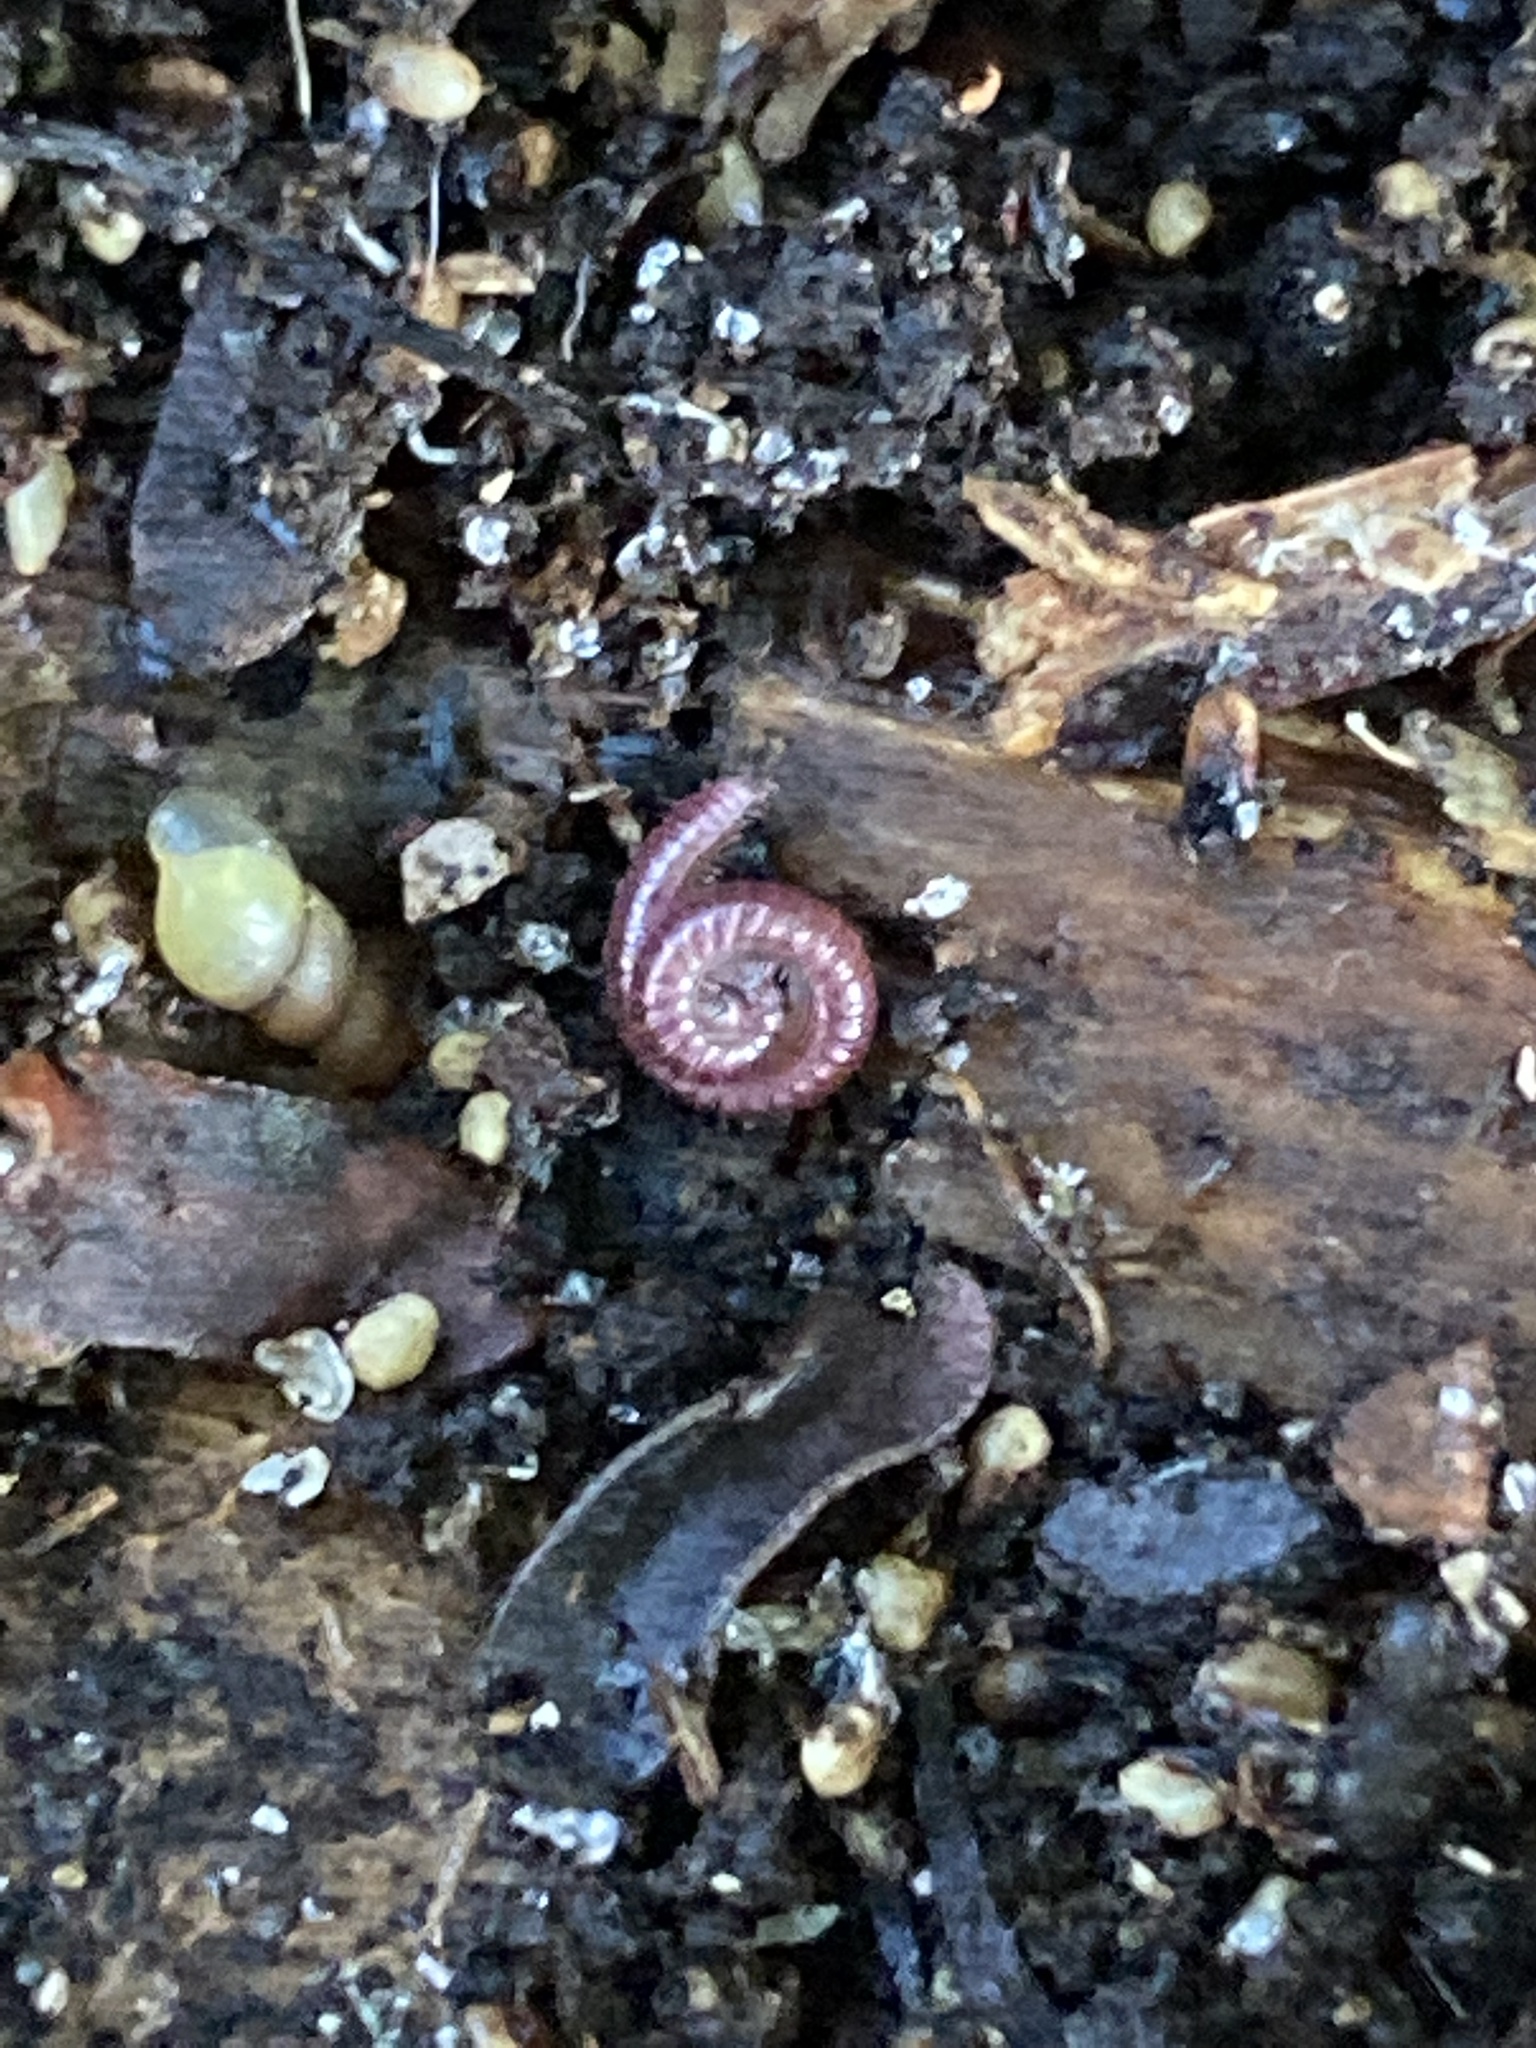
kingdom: Animalia
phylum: Arthropoda
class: Diplopoda
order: Polyzoniida
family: Siphonotidae
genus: Rhinotus
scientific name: Rhinotus purpureus
